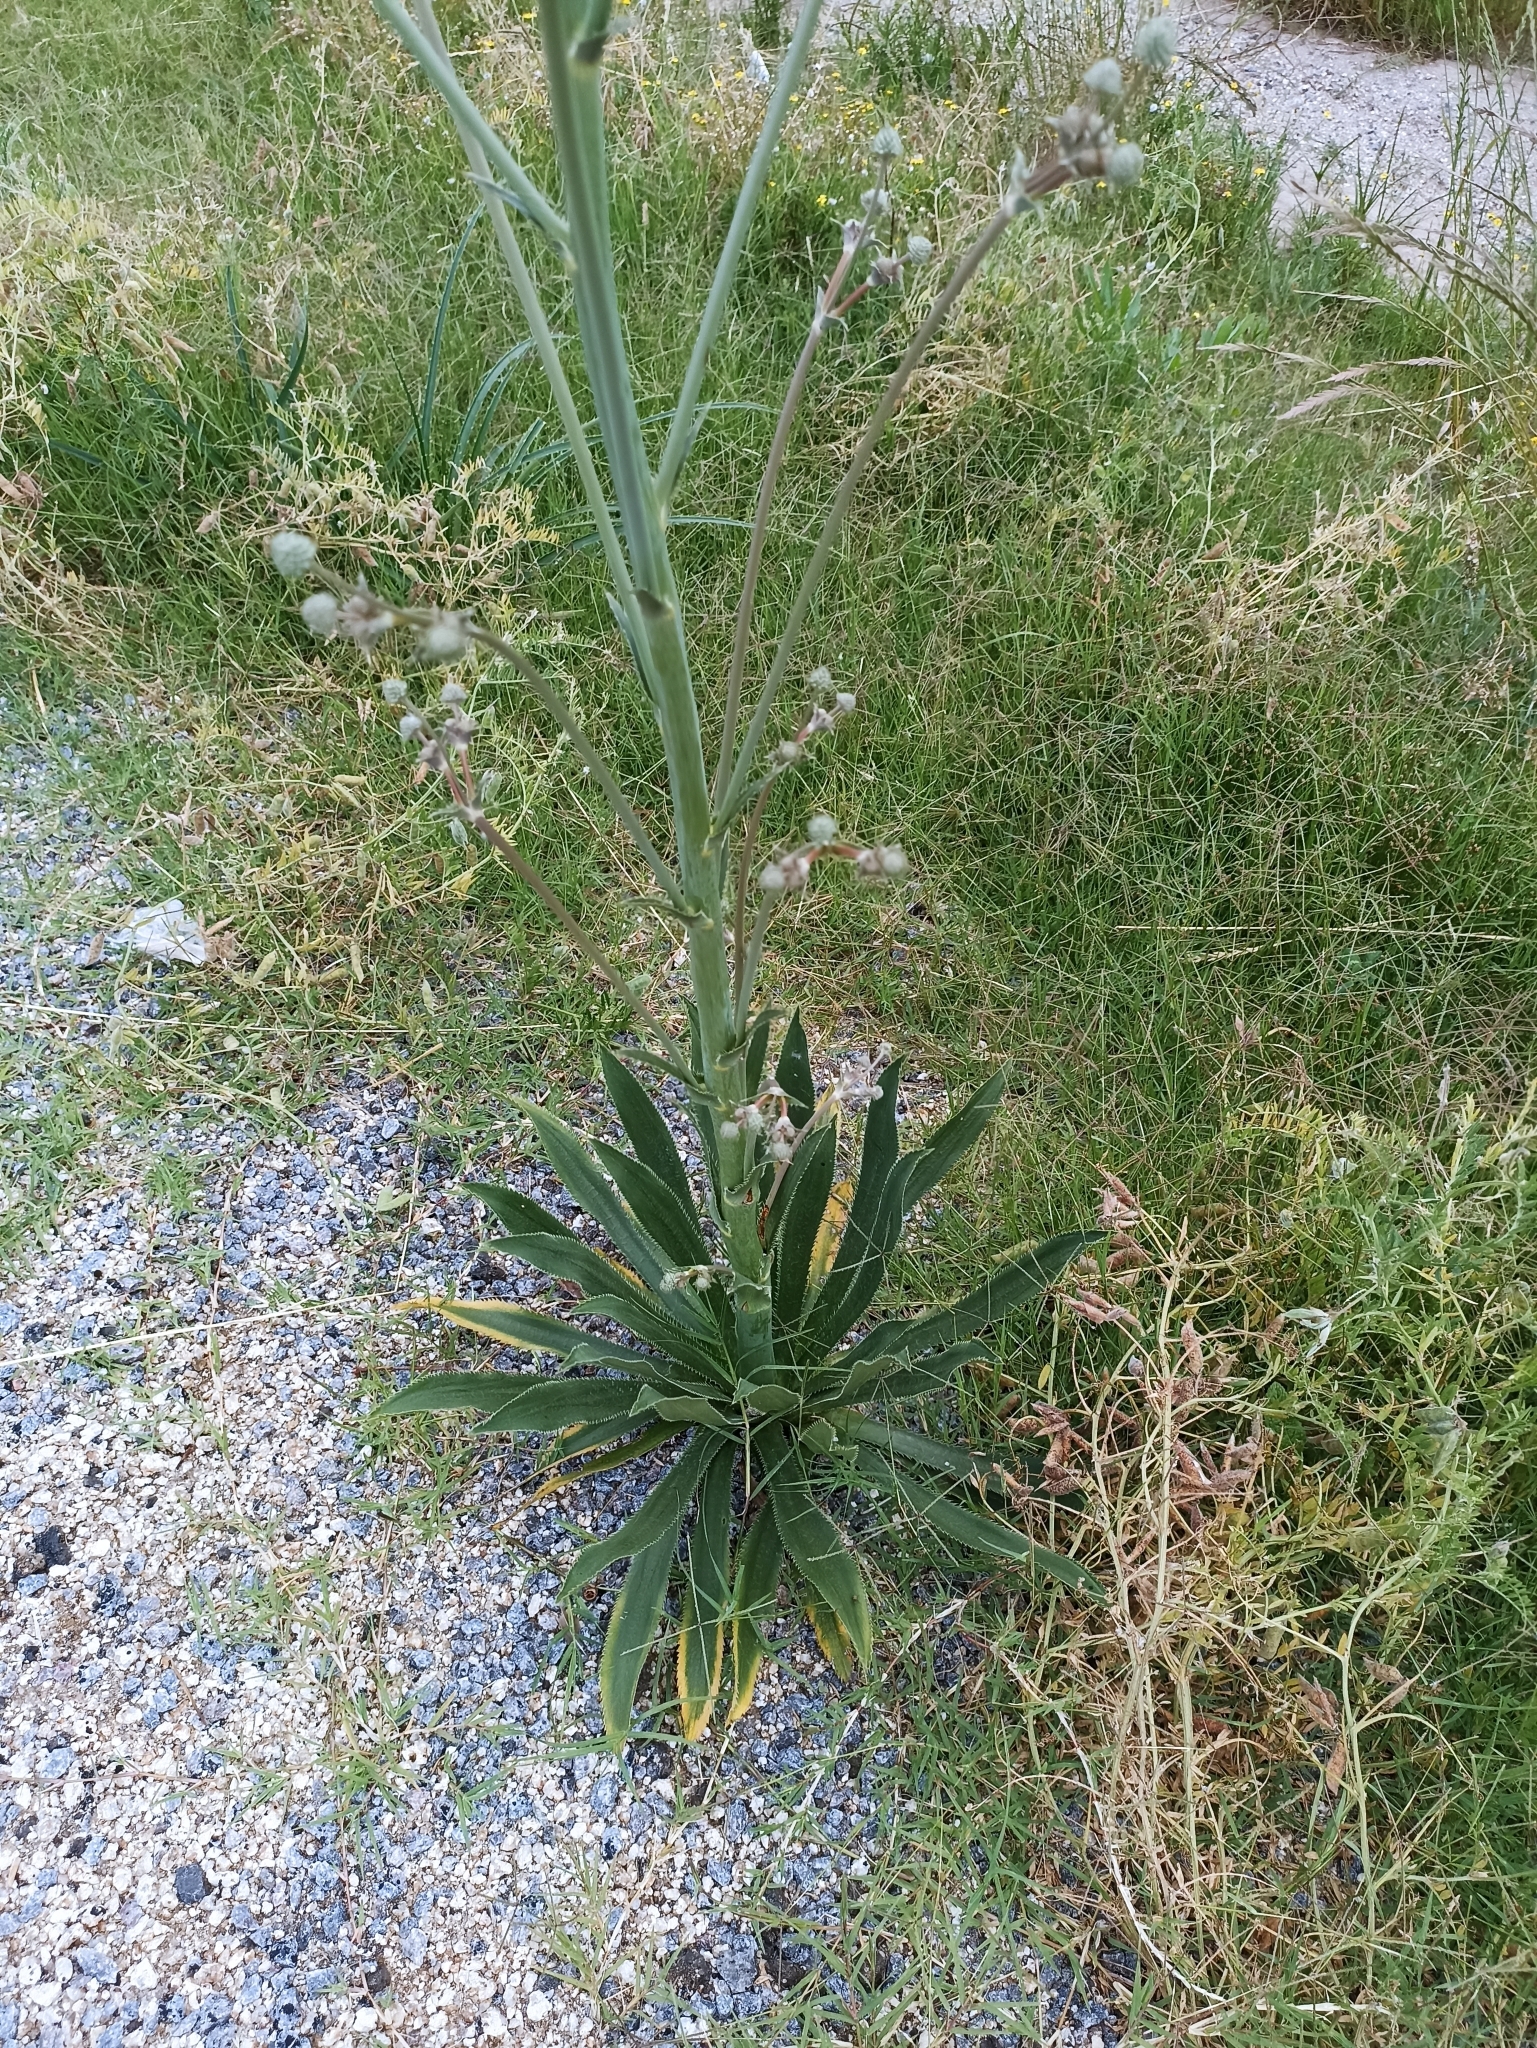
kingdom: Plantae
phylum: Tracheophyta
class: Magnoliopsida
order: Apiales
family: Apiaceae
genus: Eryngium
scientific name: Eryngium elegans
